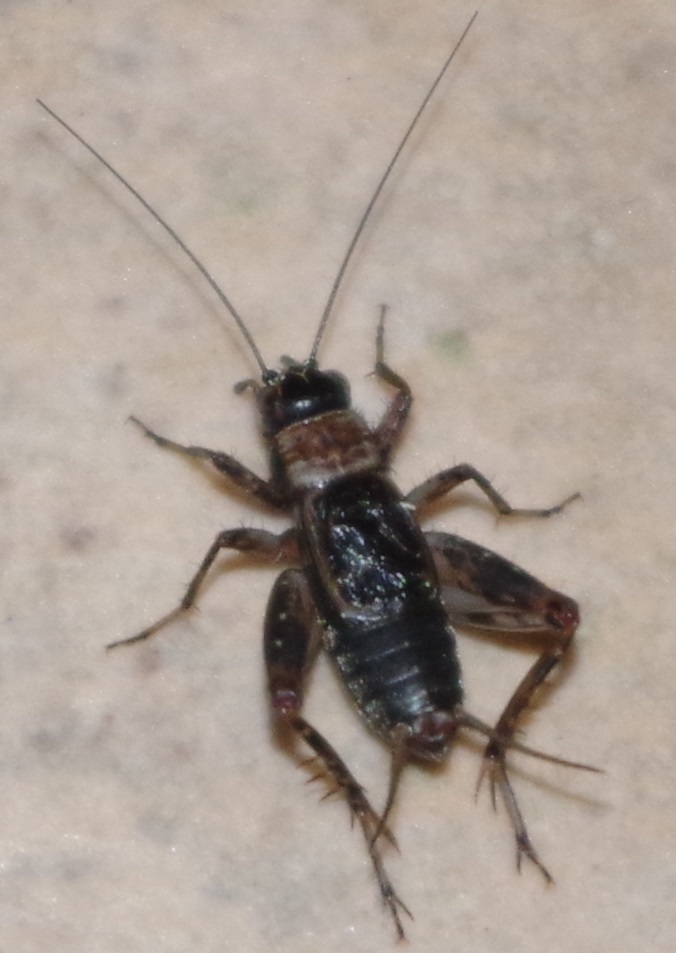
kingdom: Animalia
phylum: Arthropoda
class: Insecta
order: Orthoptera
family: Trigonidiidae
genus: Nemobius
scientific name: Nemobius sylvestris
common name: Wood-cricket
